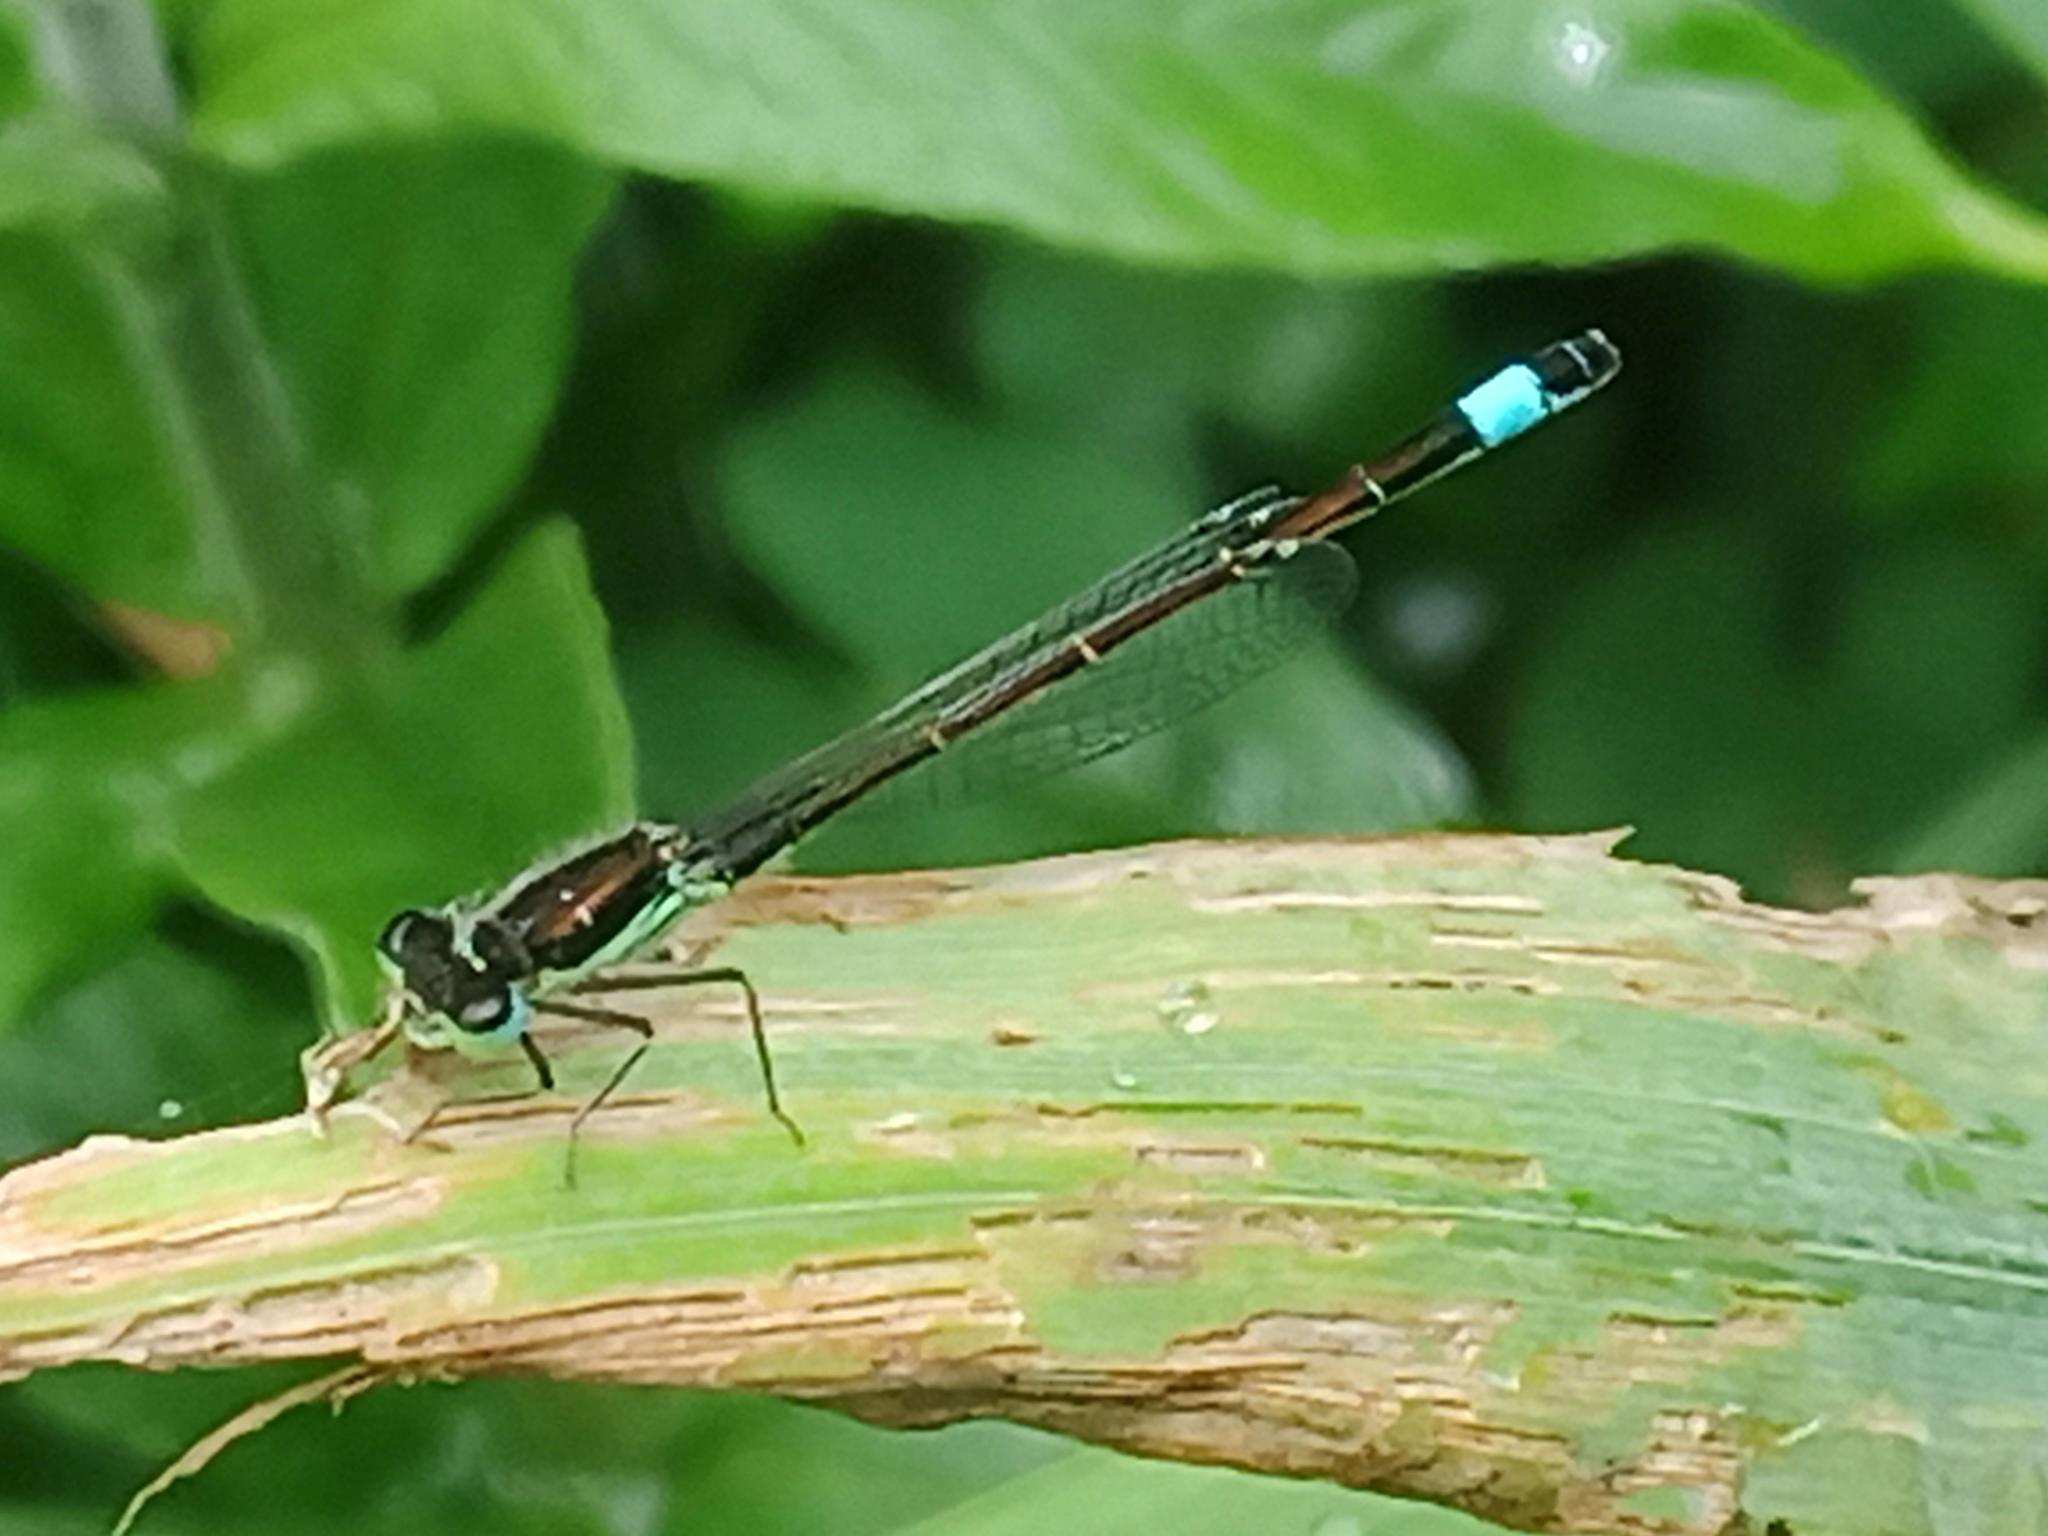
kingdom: Animalia
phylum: Arthropoda
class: Insecta
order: Odonata
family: Coenagrionidae
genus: Ischnura
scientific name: Ischnura graellsii
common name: Iberian bluetail
